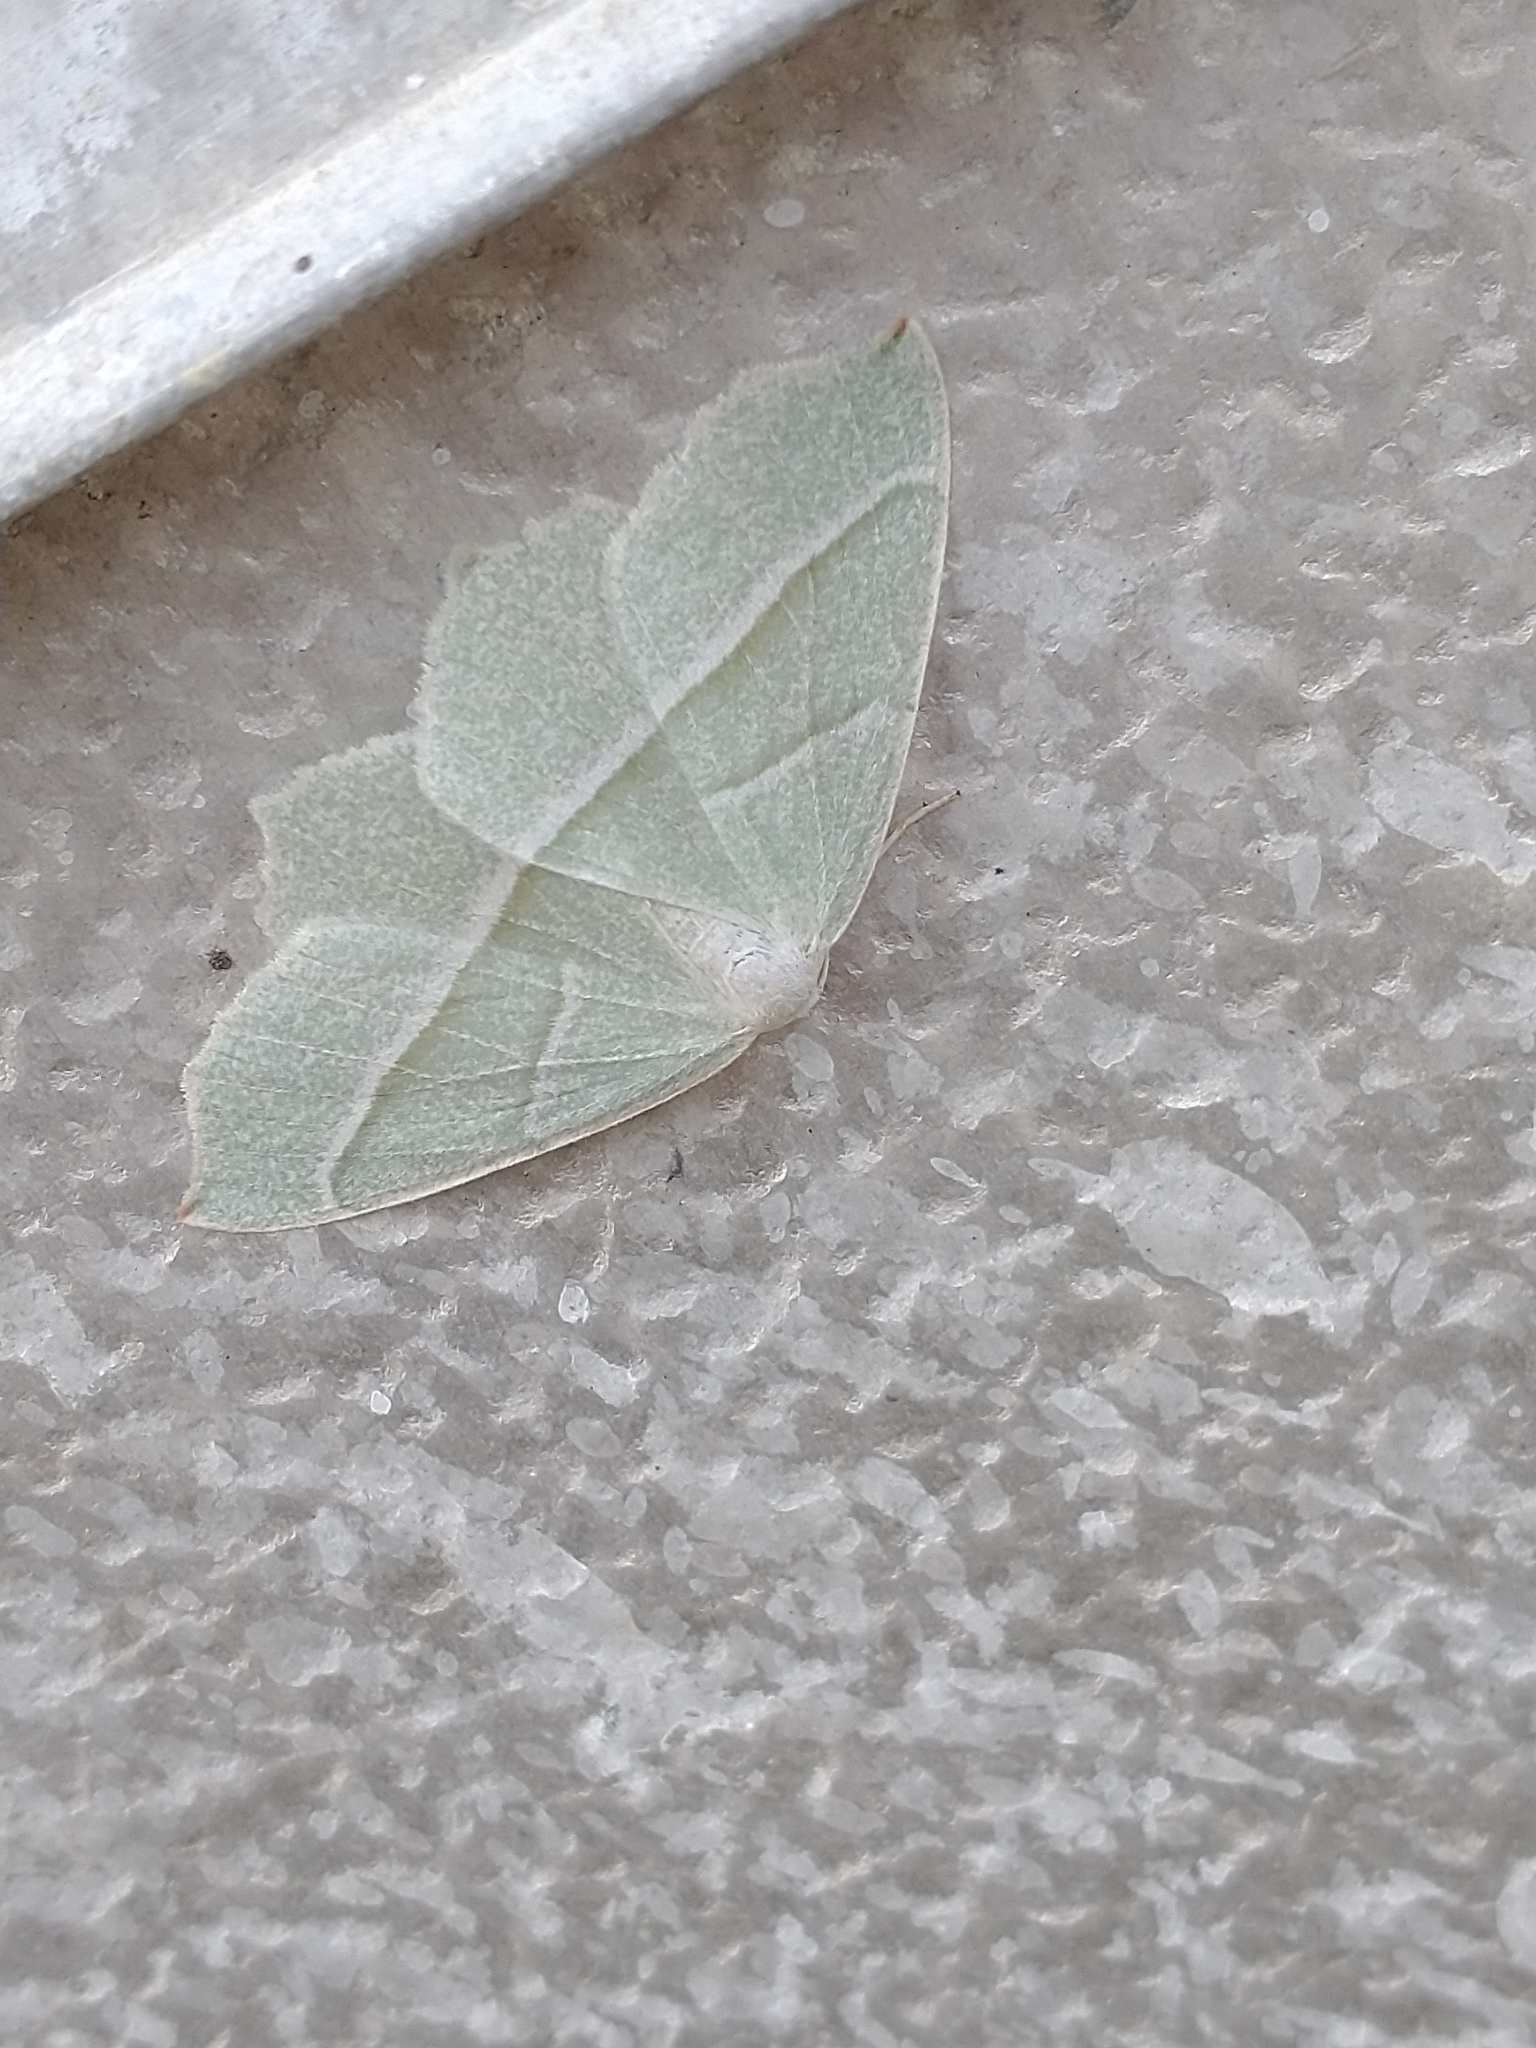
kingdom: Animalia
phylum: Arthropoda
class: Insecta
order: Lepidoptera
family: Geometridae
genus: Campaea
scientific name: Campaea margaritaria
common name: Light emerald
